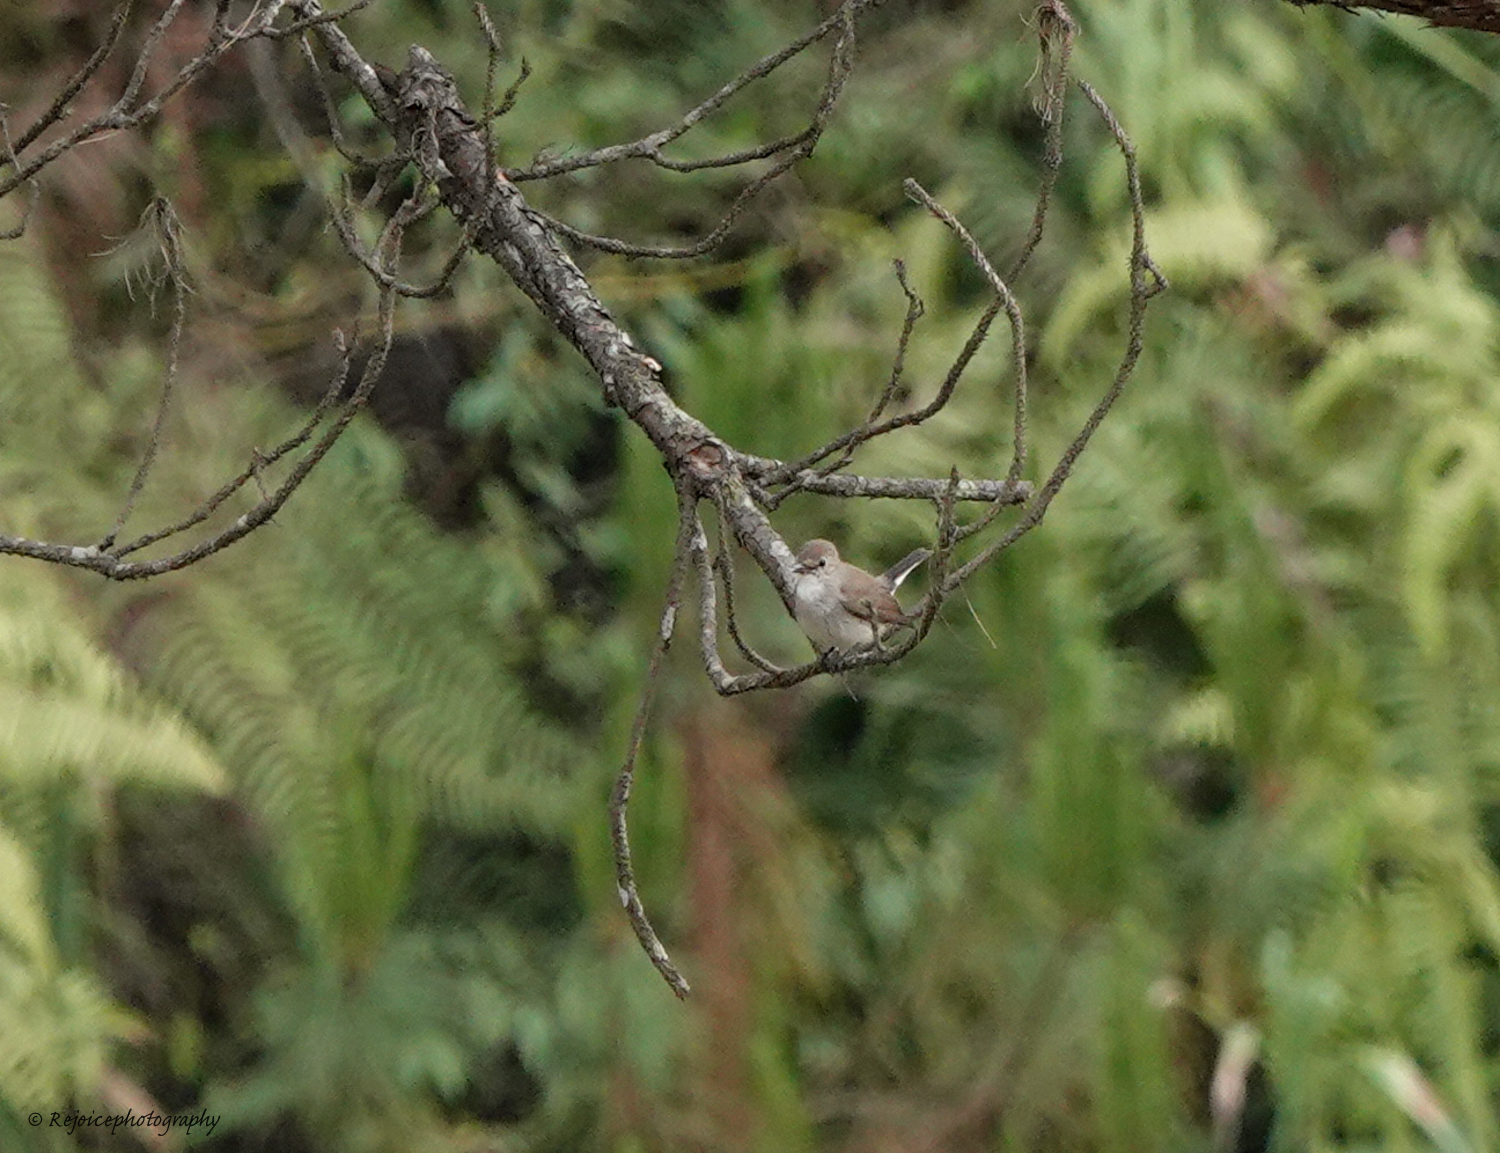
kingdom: Animalia
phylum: Chordata
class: Aves
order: Passeriformes
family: Muscicapidae
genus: Ficedula
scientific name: Ficedula albicilla
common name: Taiga flycatcher
